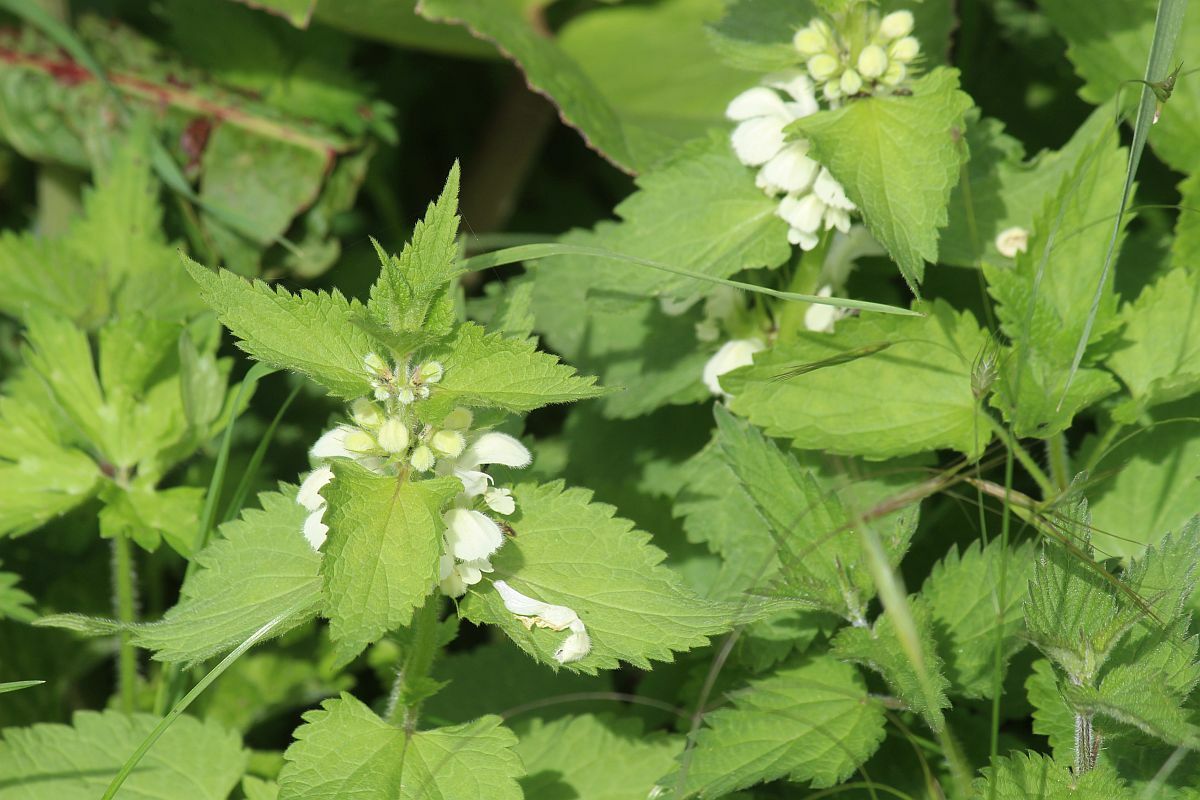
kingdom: Plantae
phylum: Tracheophyta
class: Magnoliopsida
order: Lamiales
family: Lamiaceae
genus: Lamium
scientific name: Lamium album
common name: White dead-nettle
